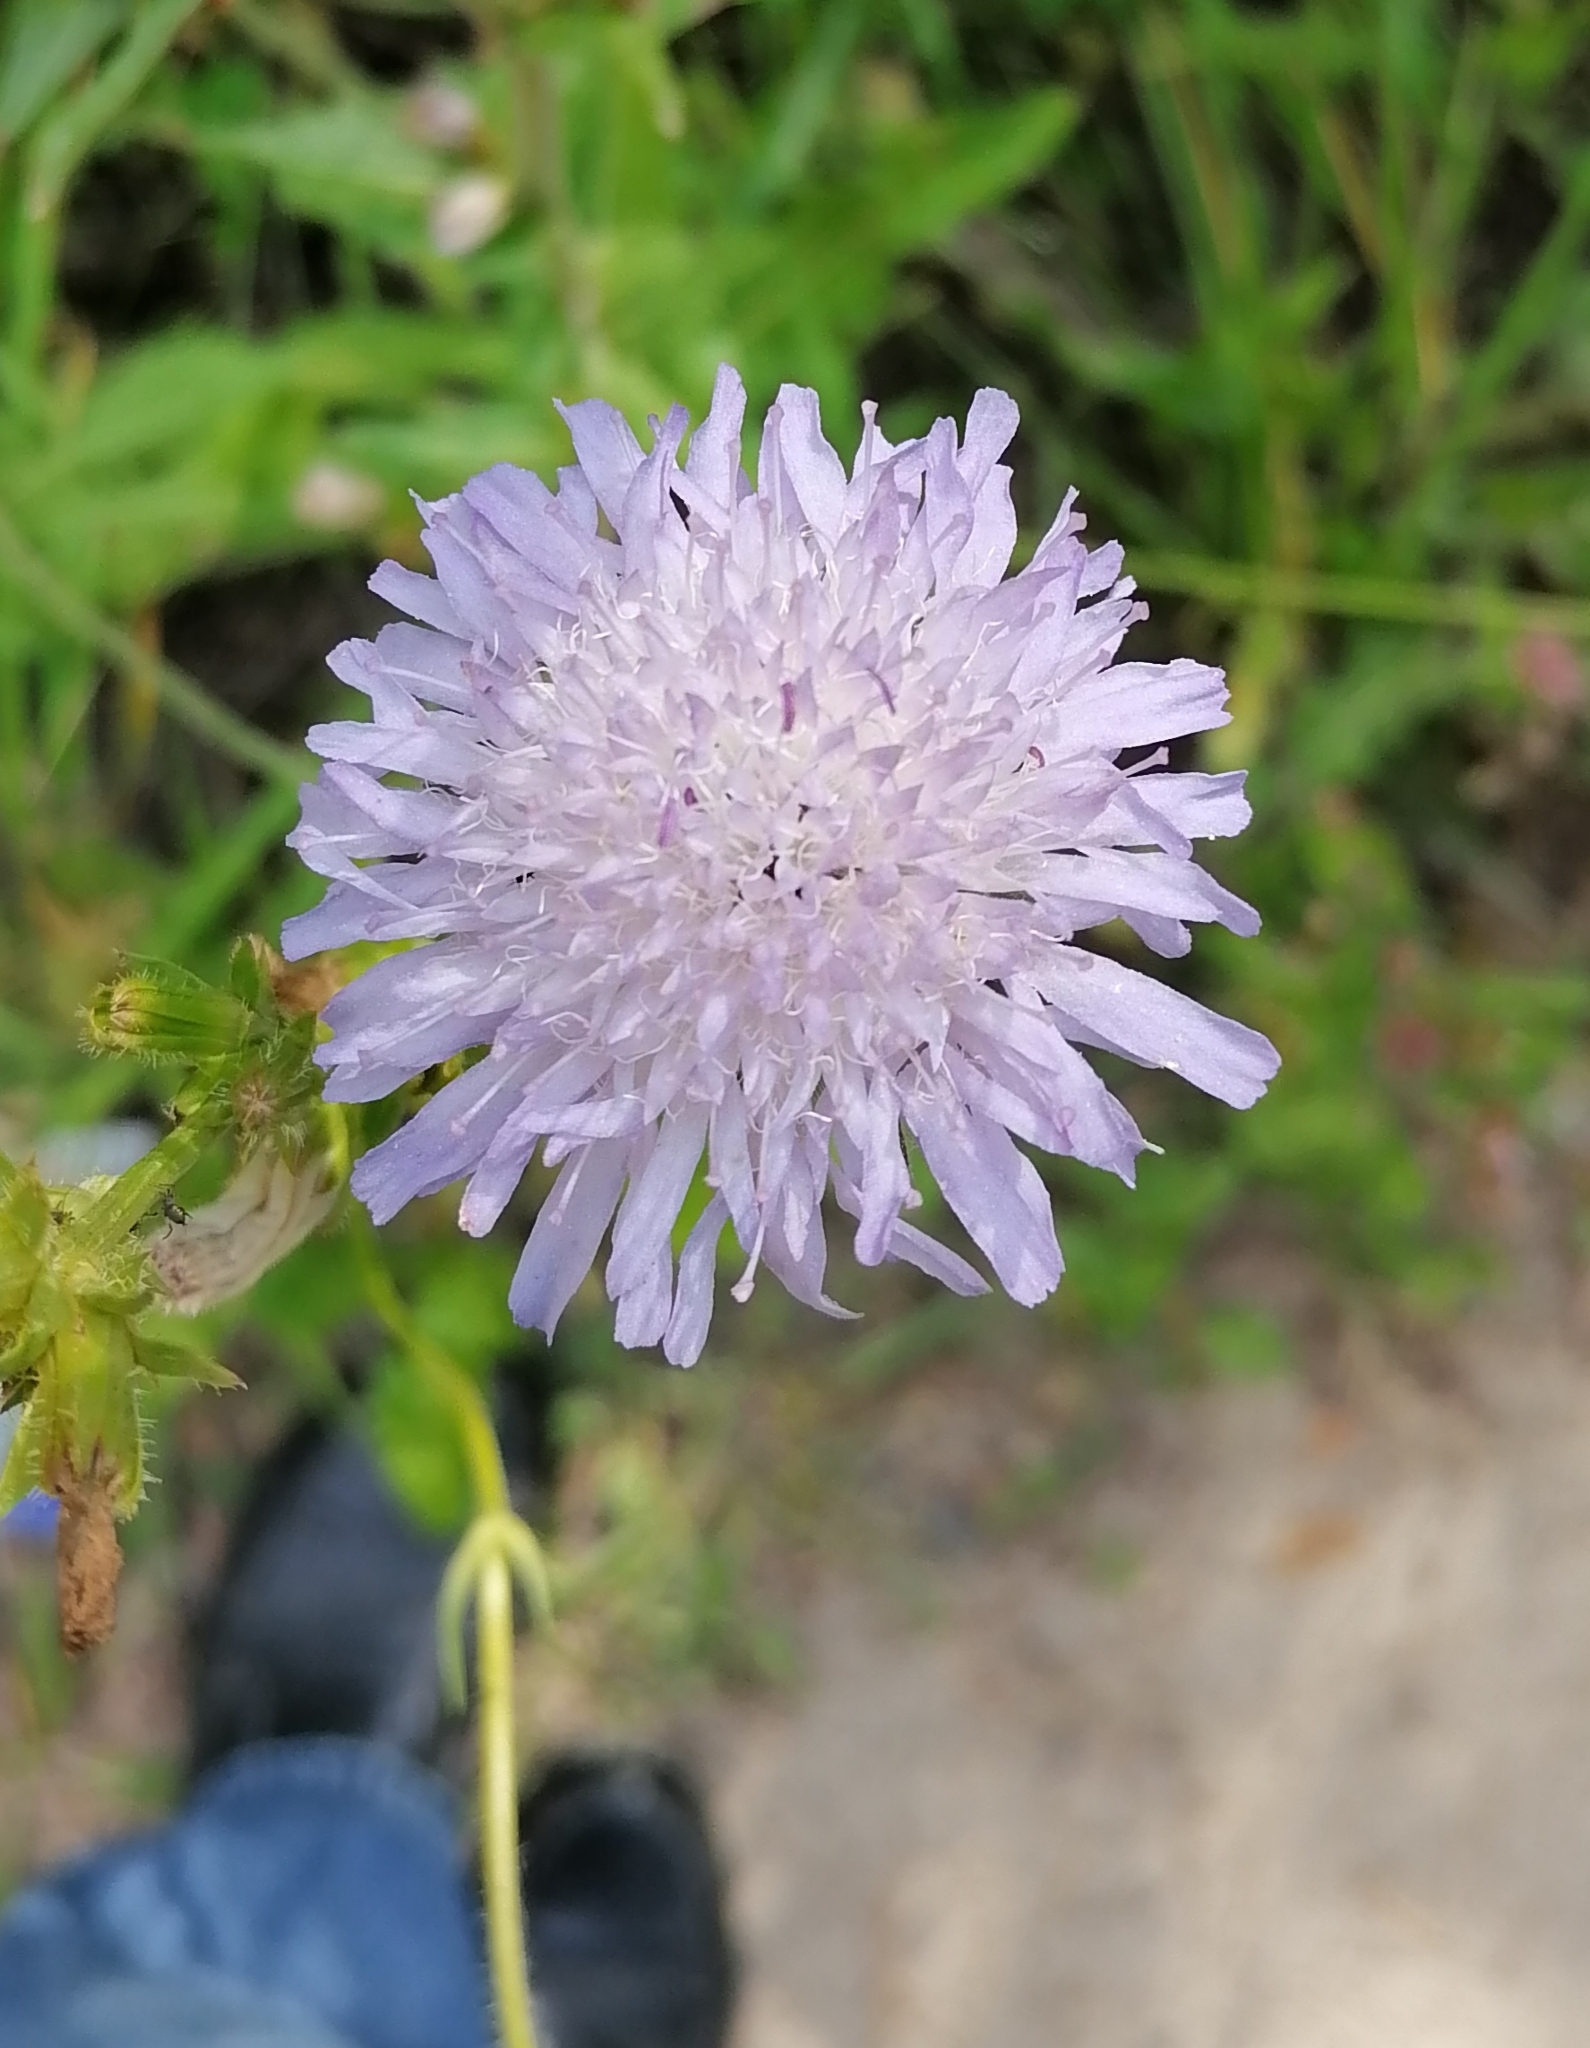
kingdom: Plantae
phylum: Tracheophyta
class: Magnoliopsida
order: Dipsacales
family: Caprifoliaceae
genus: Knautia
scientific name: Knautia arvensis
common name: Field scabiosa
